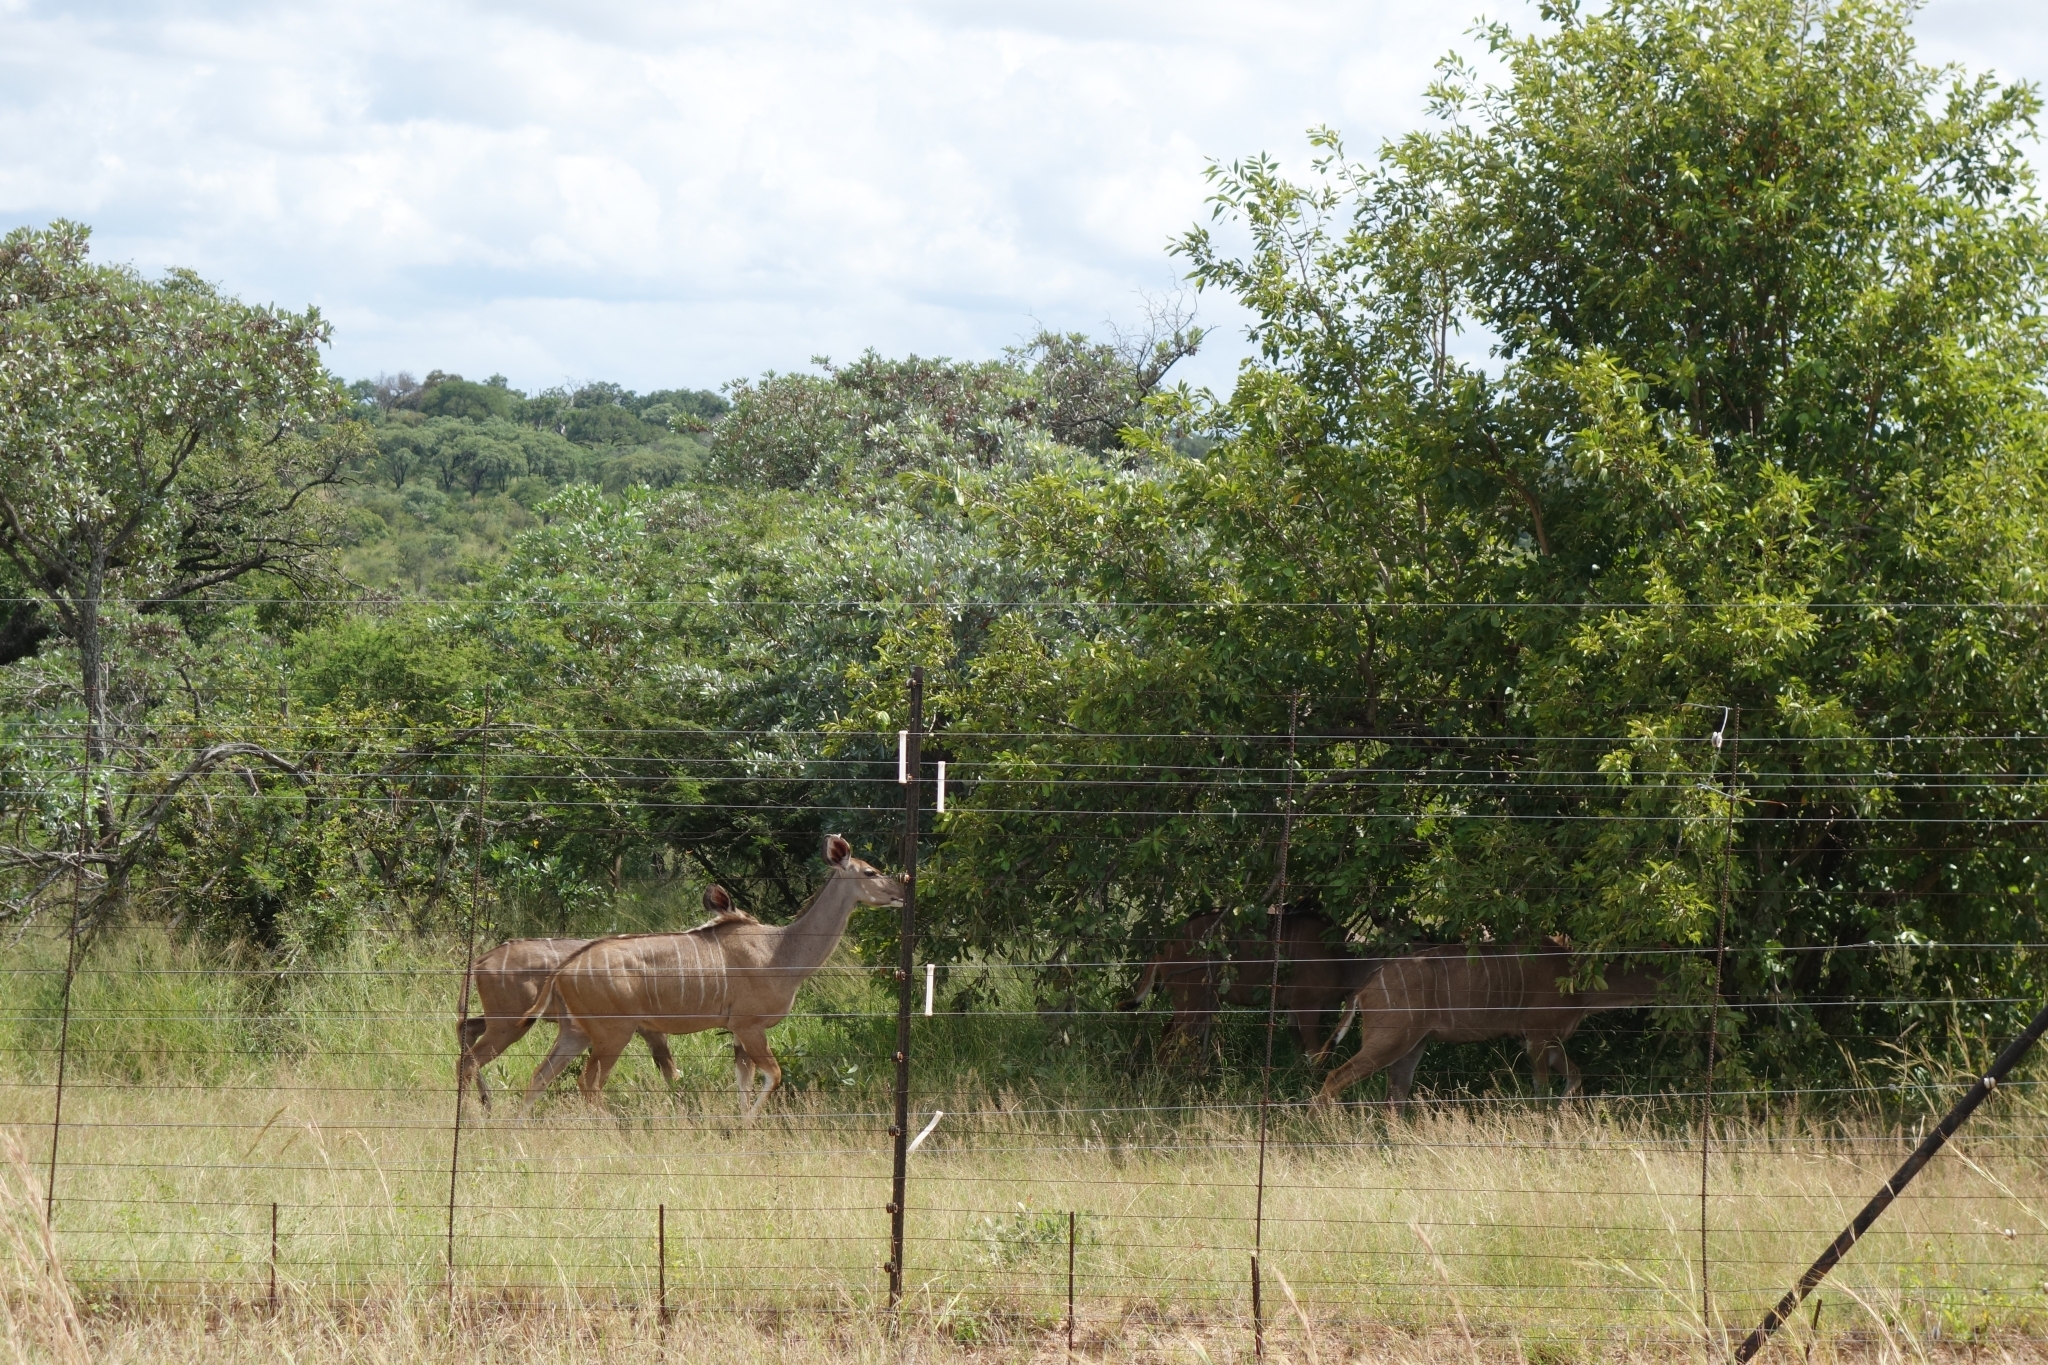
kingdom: Animalia
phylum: Chordata
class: Mammalia
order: Artiodactyla
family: Bovidae
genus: Tragelaphus
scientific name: Tragelaphus strepsiceros
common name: Greater kudu
